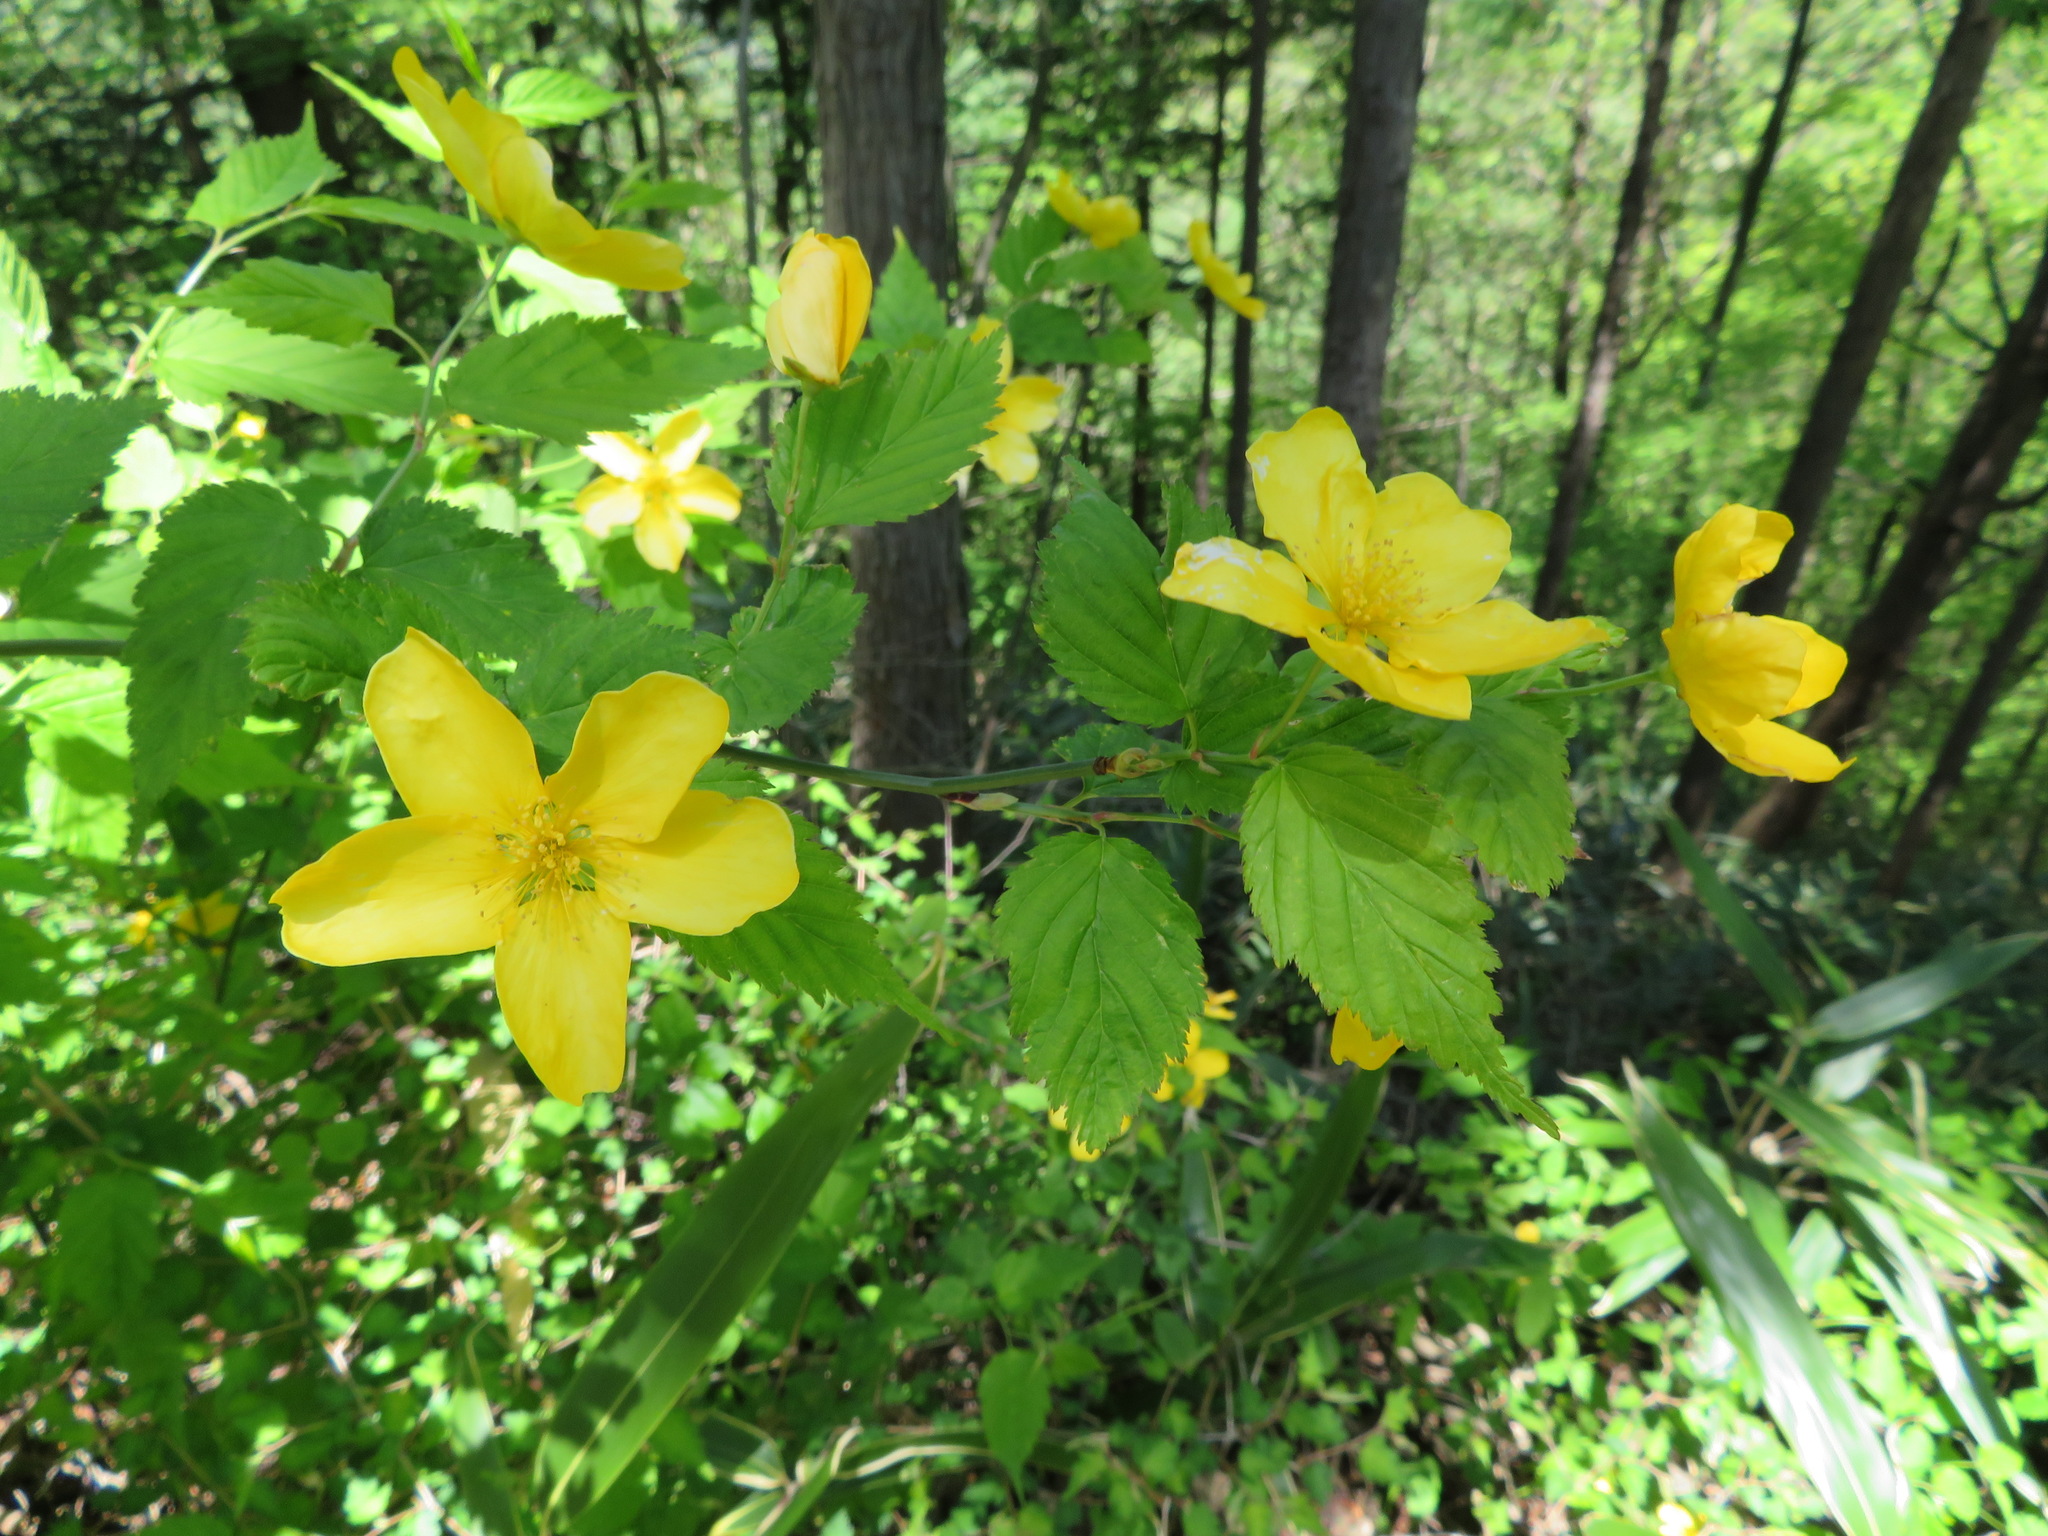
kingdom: Plantae
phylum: Tracheophyta
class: Magnoliopsida
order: Rosales
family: Rosaceae
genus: Kerria
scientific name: Kerria japonica
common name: Japanese kerria
